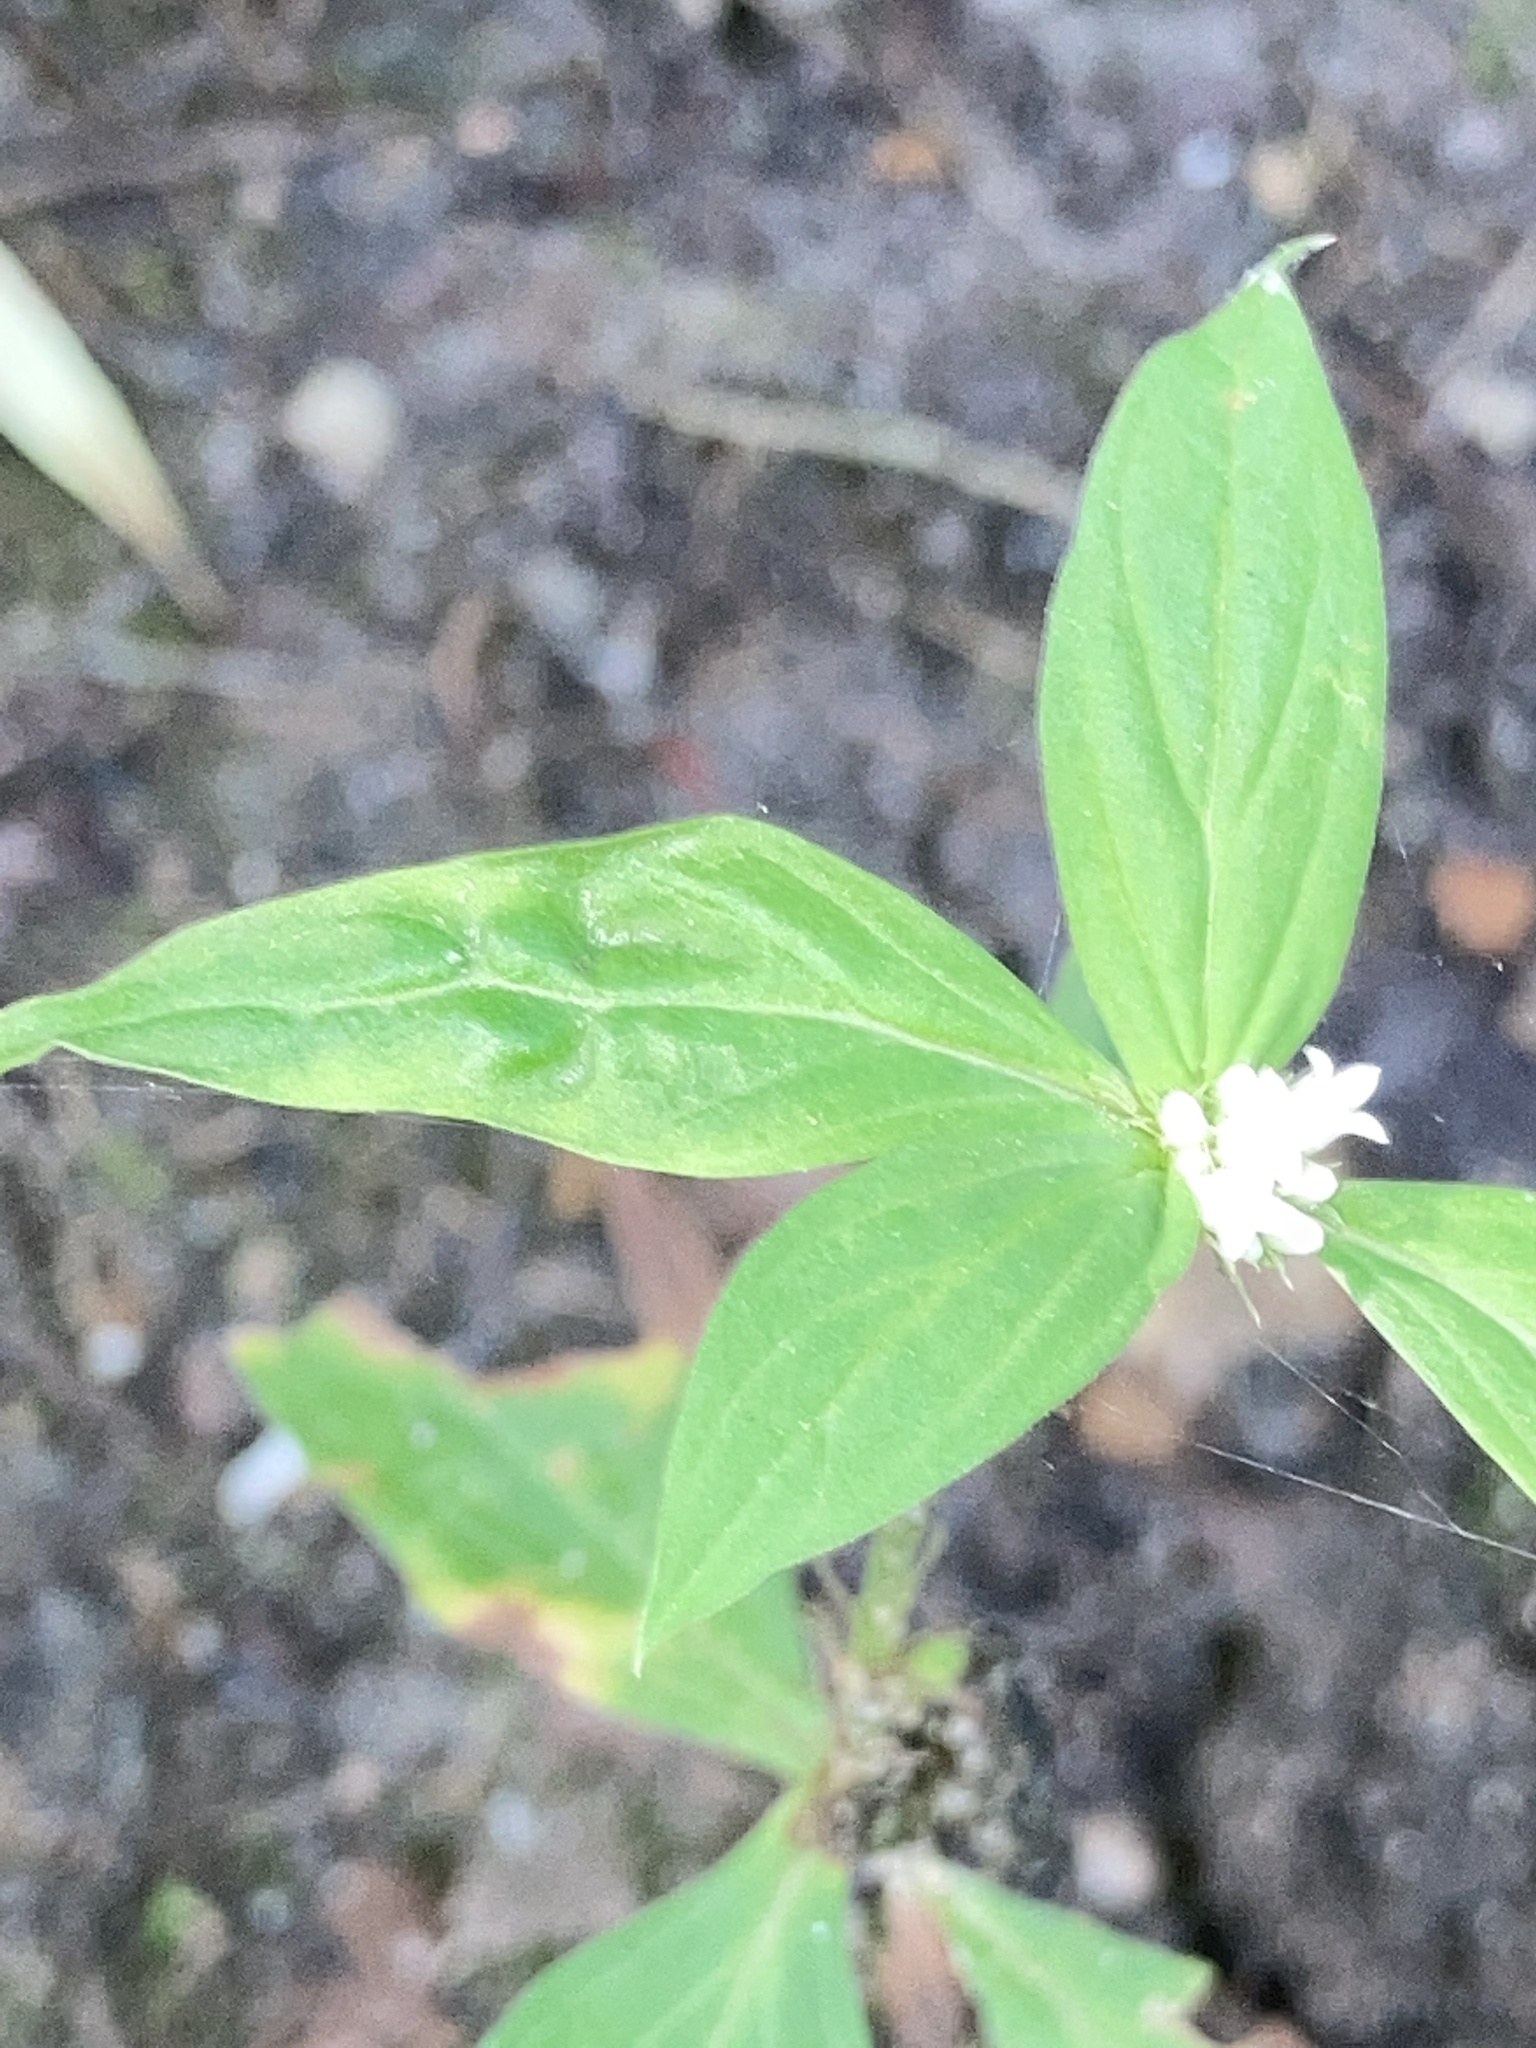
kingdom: Plantae
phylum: Tracheophyta
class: Magnoliopsida
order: Gentianales
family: Rubiaceae
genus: Spermacoce
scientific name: Spermacoce glabra
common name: Smooth buttonweed
